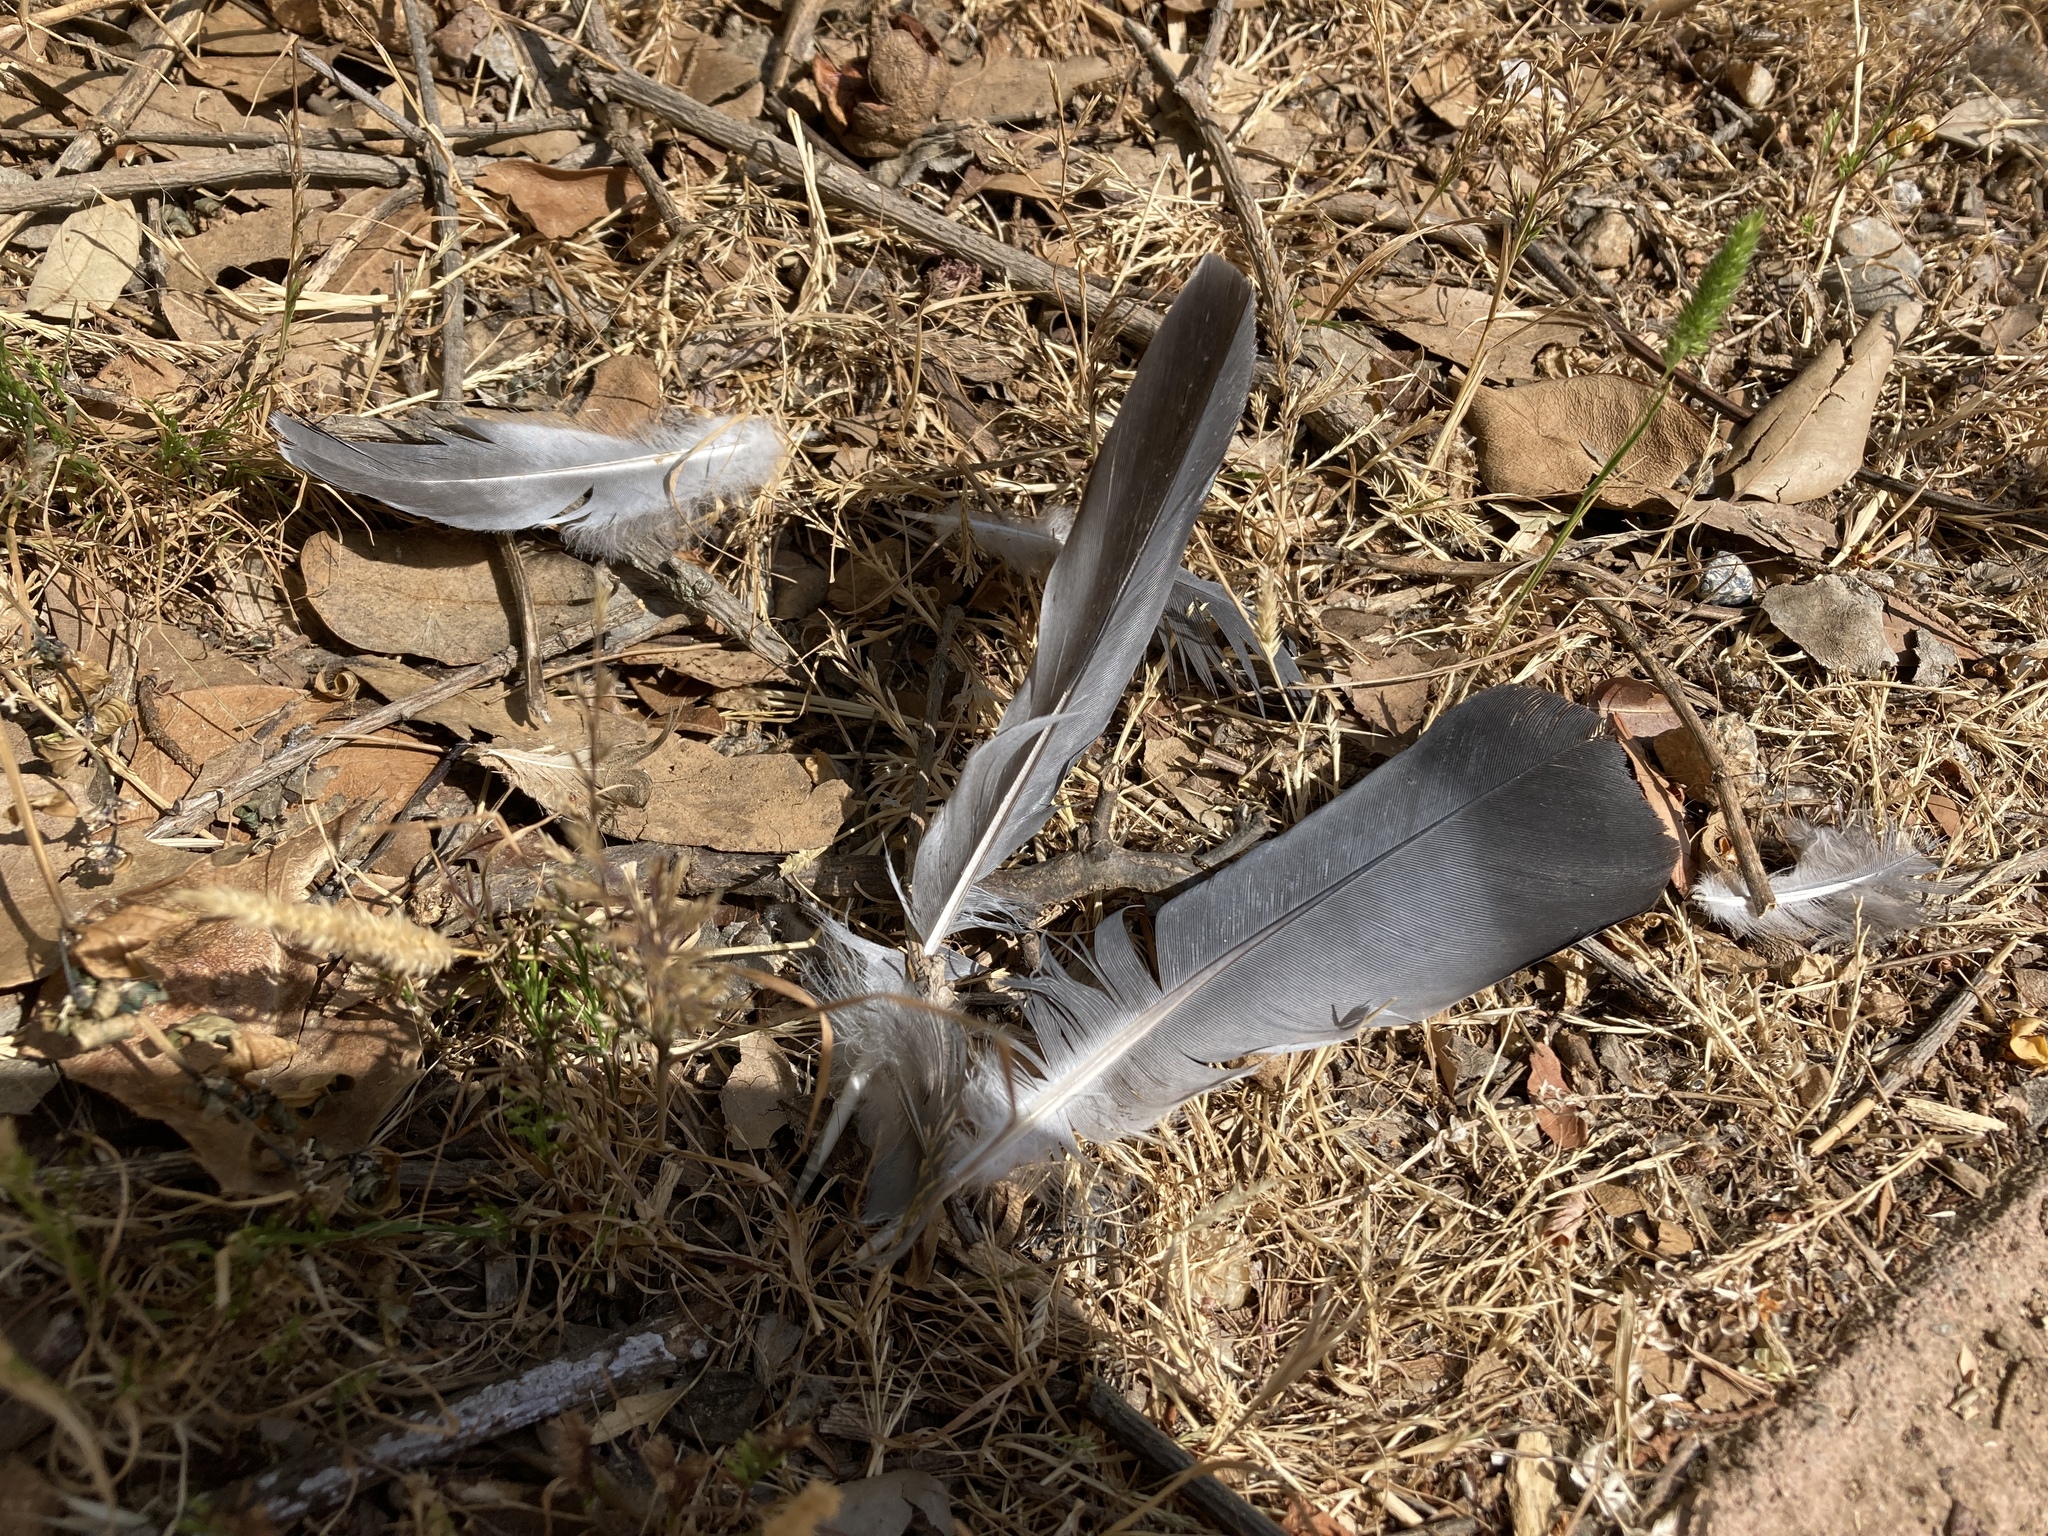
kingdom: Animalia
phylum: Chordata
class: Aves
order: Columbiformes
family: Columbidae
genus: Columba
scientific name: Columba livia
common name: Rock pigeon
